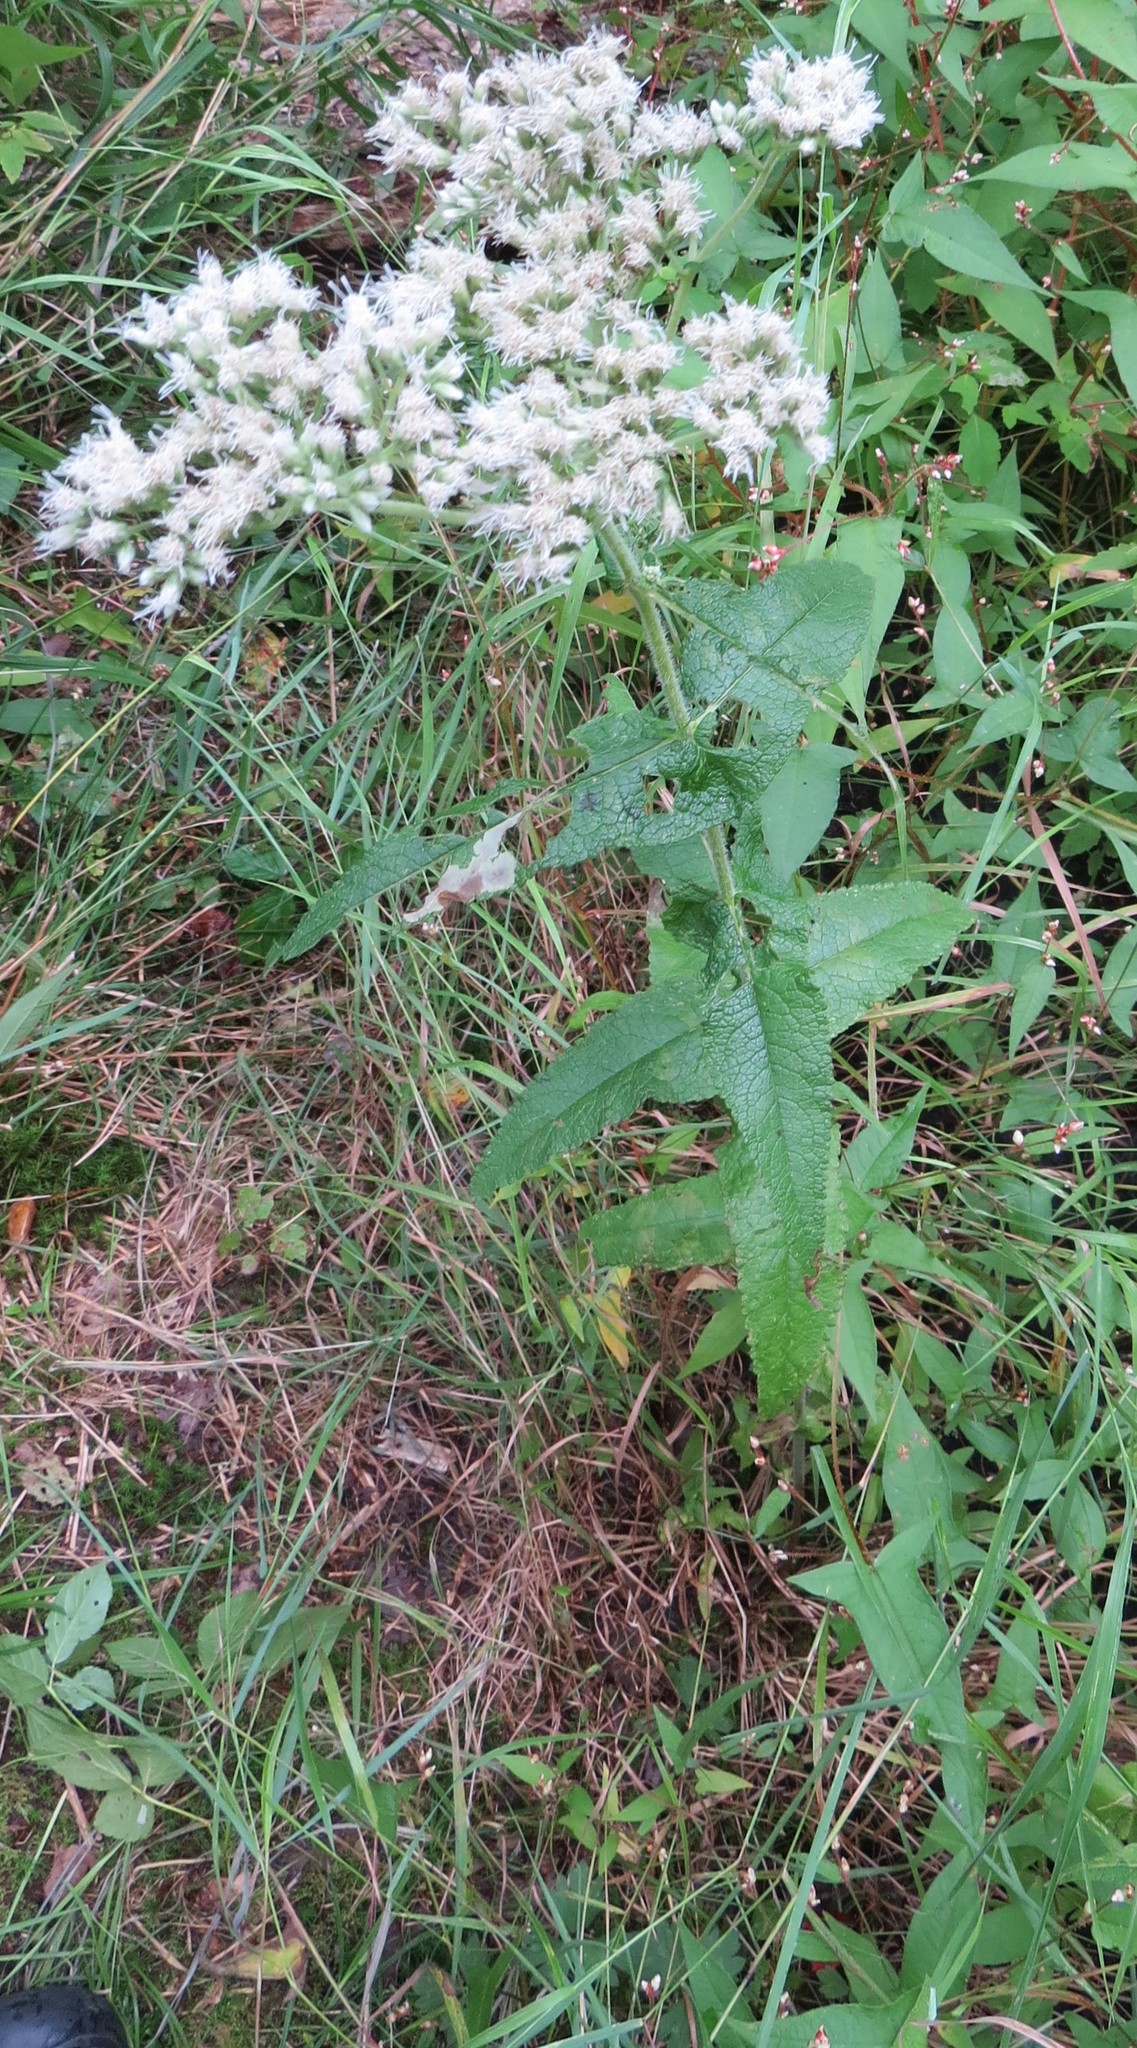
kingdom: Plantae
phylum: Tracheophyta
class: Magnoliopsida
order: Asterales
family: Asteraceae
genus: Eupatorium
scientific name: Eupatorium perfoliatum
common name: Boneset
